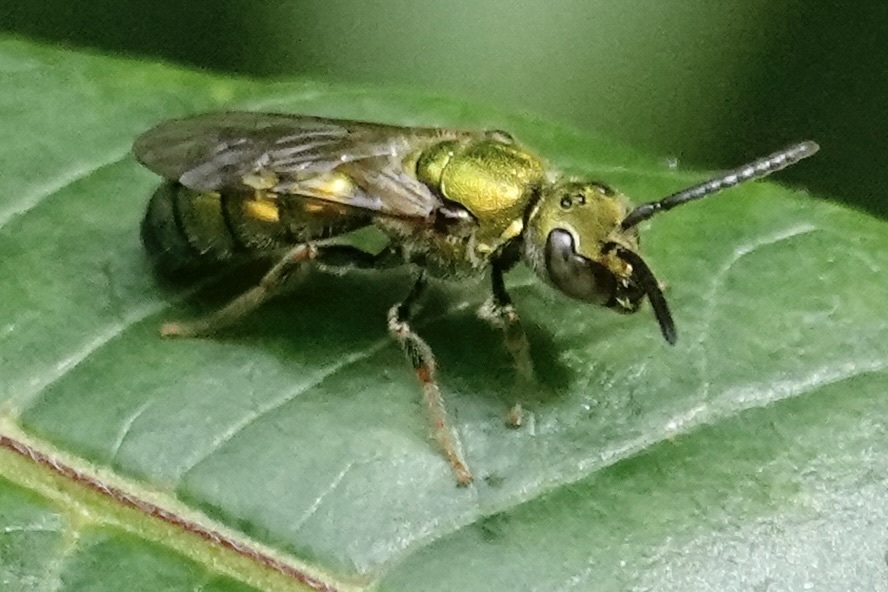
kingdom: Animalia
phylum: Arthropoda
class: Insecta
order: Hymenoptera
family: Halictidae
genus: Augochlora
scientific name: Augochlora pura
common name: Pure green sweat bee
